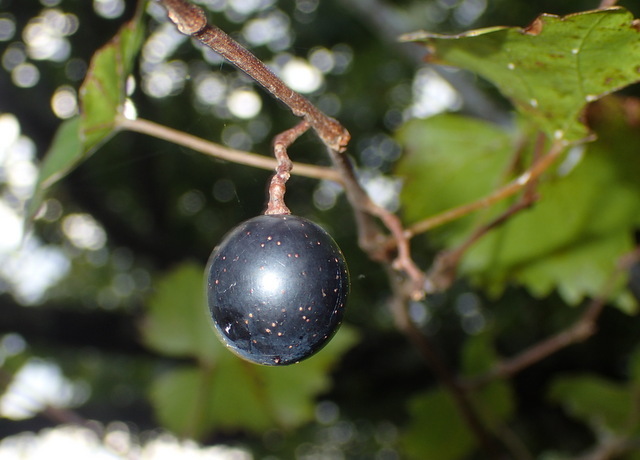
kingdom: Plantae
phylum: Tracheophyta
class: Magnoliopsida
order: Vitales
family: Vitaceae
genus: Vitis
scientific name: Vitis rotundifolia
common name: Muscadine grape
